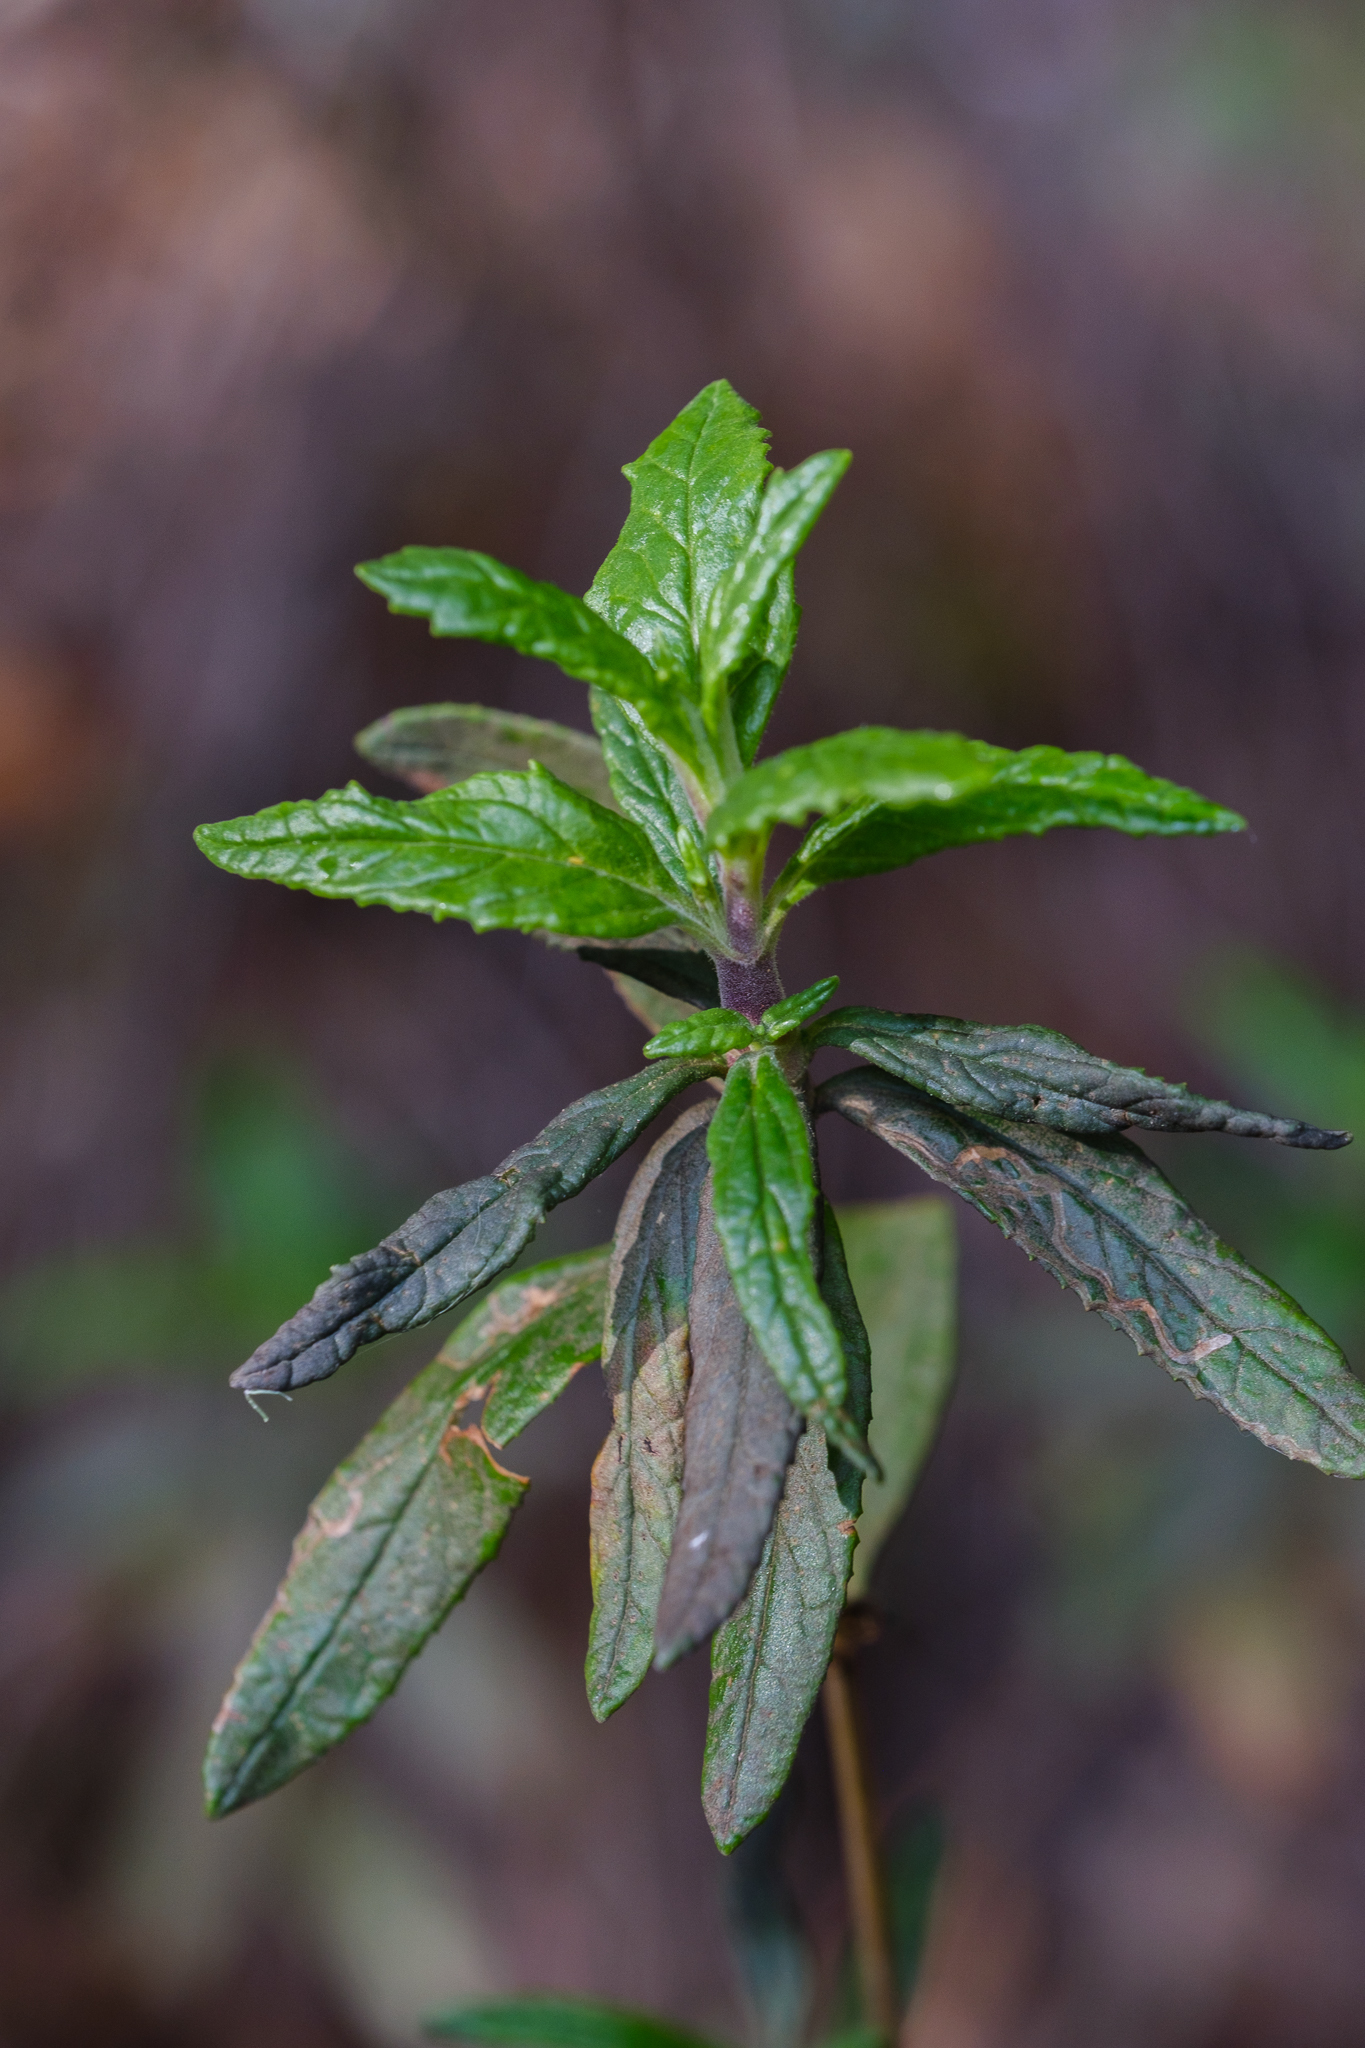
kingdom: Plantae
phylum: Tracheophyta
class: Magnoliopsida
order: Lamiales
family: Phrymaceae
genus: Diplacus
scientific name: Diplacus aurantiacus
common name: Bush monkey-flower
